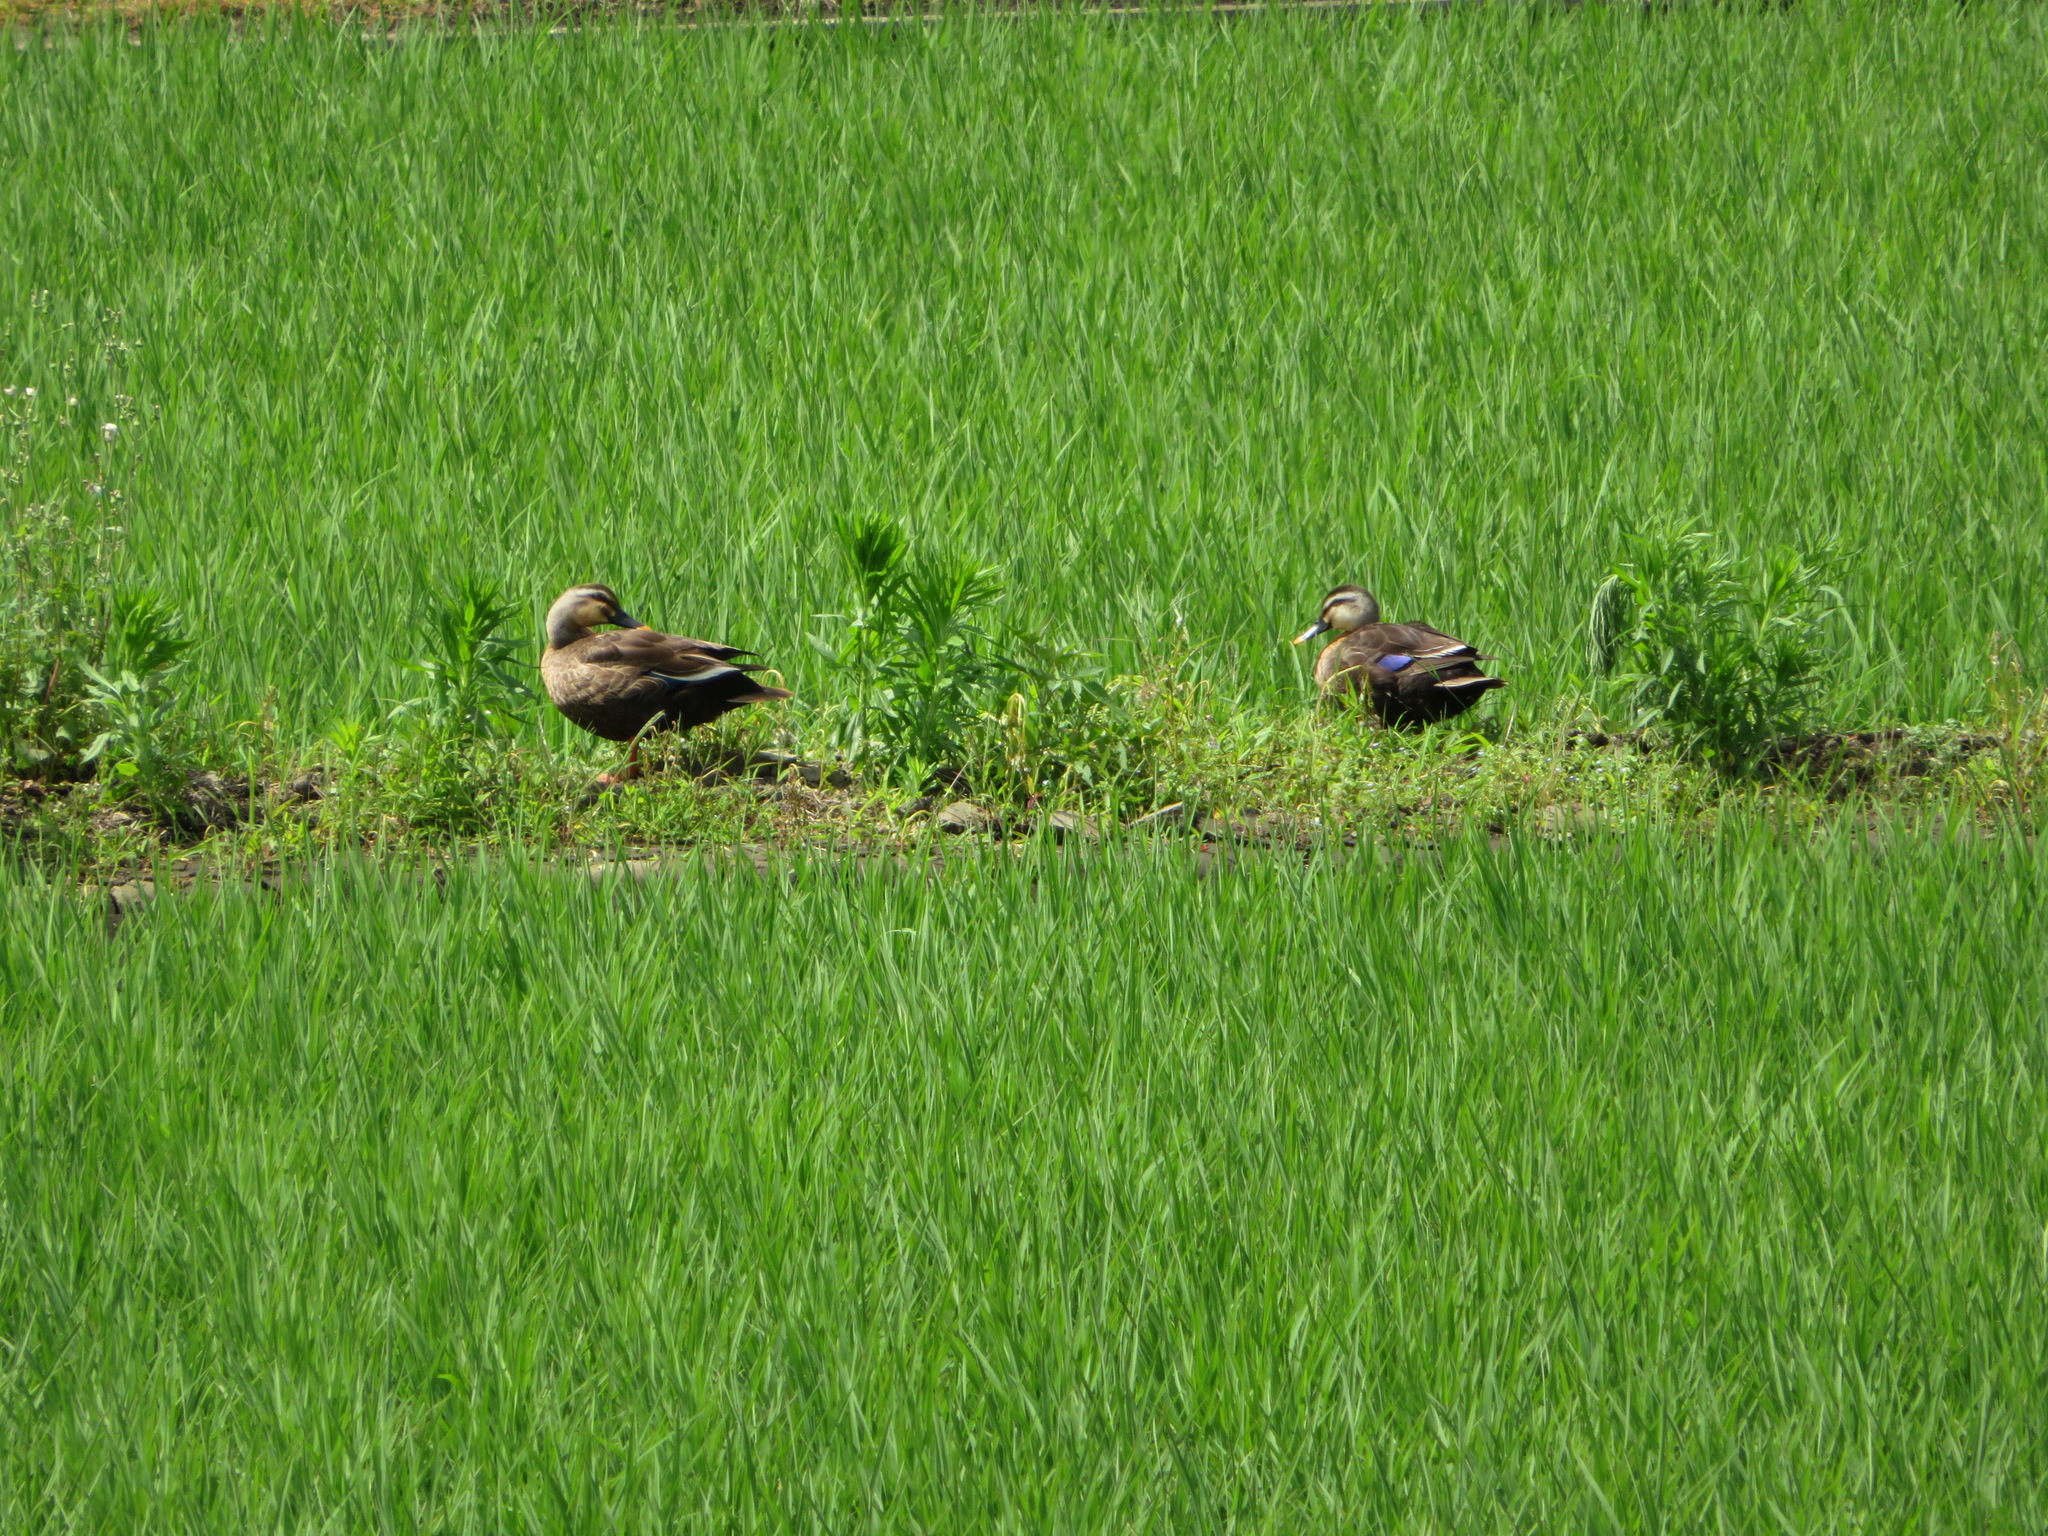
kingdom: Animalia
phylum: Chordata
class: Aves
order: Anseriformes
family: Anatidae
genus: Anas
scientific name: Anas zonorhyncha
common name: Eastern spot-billed duck
